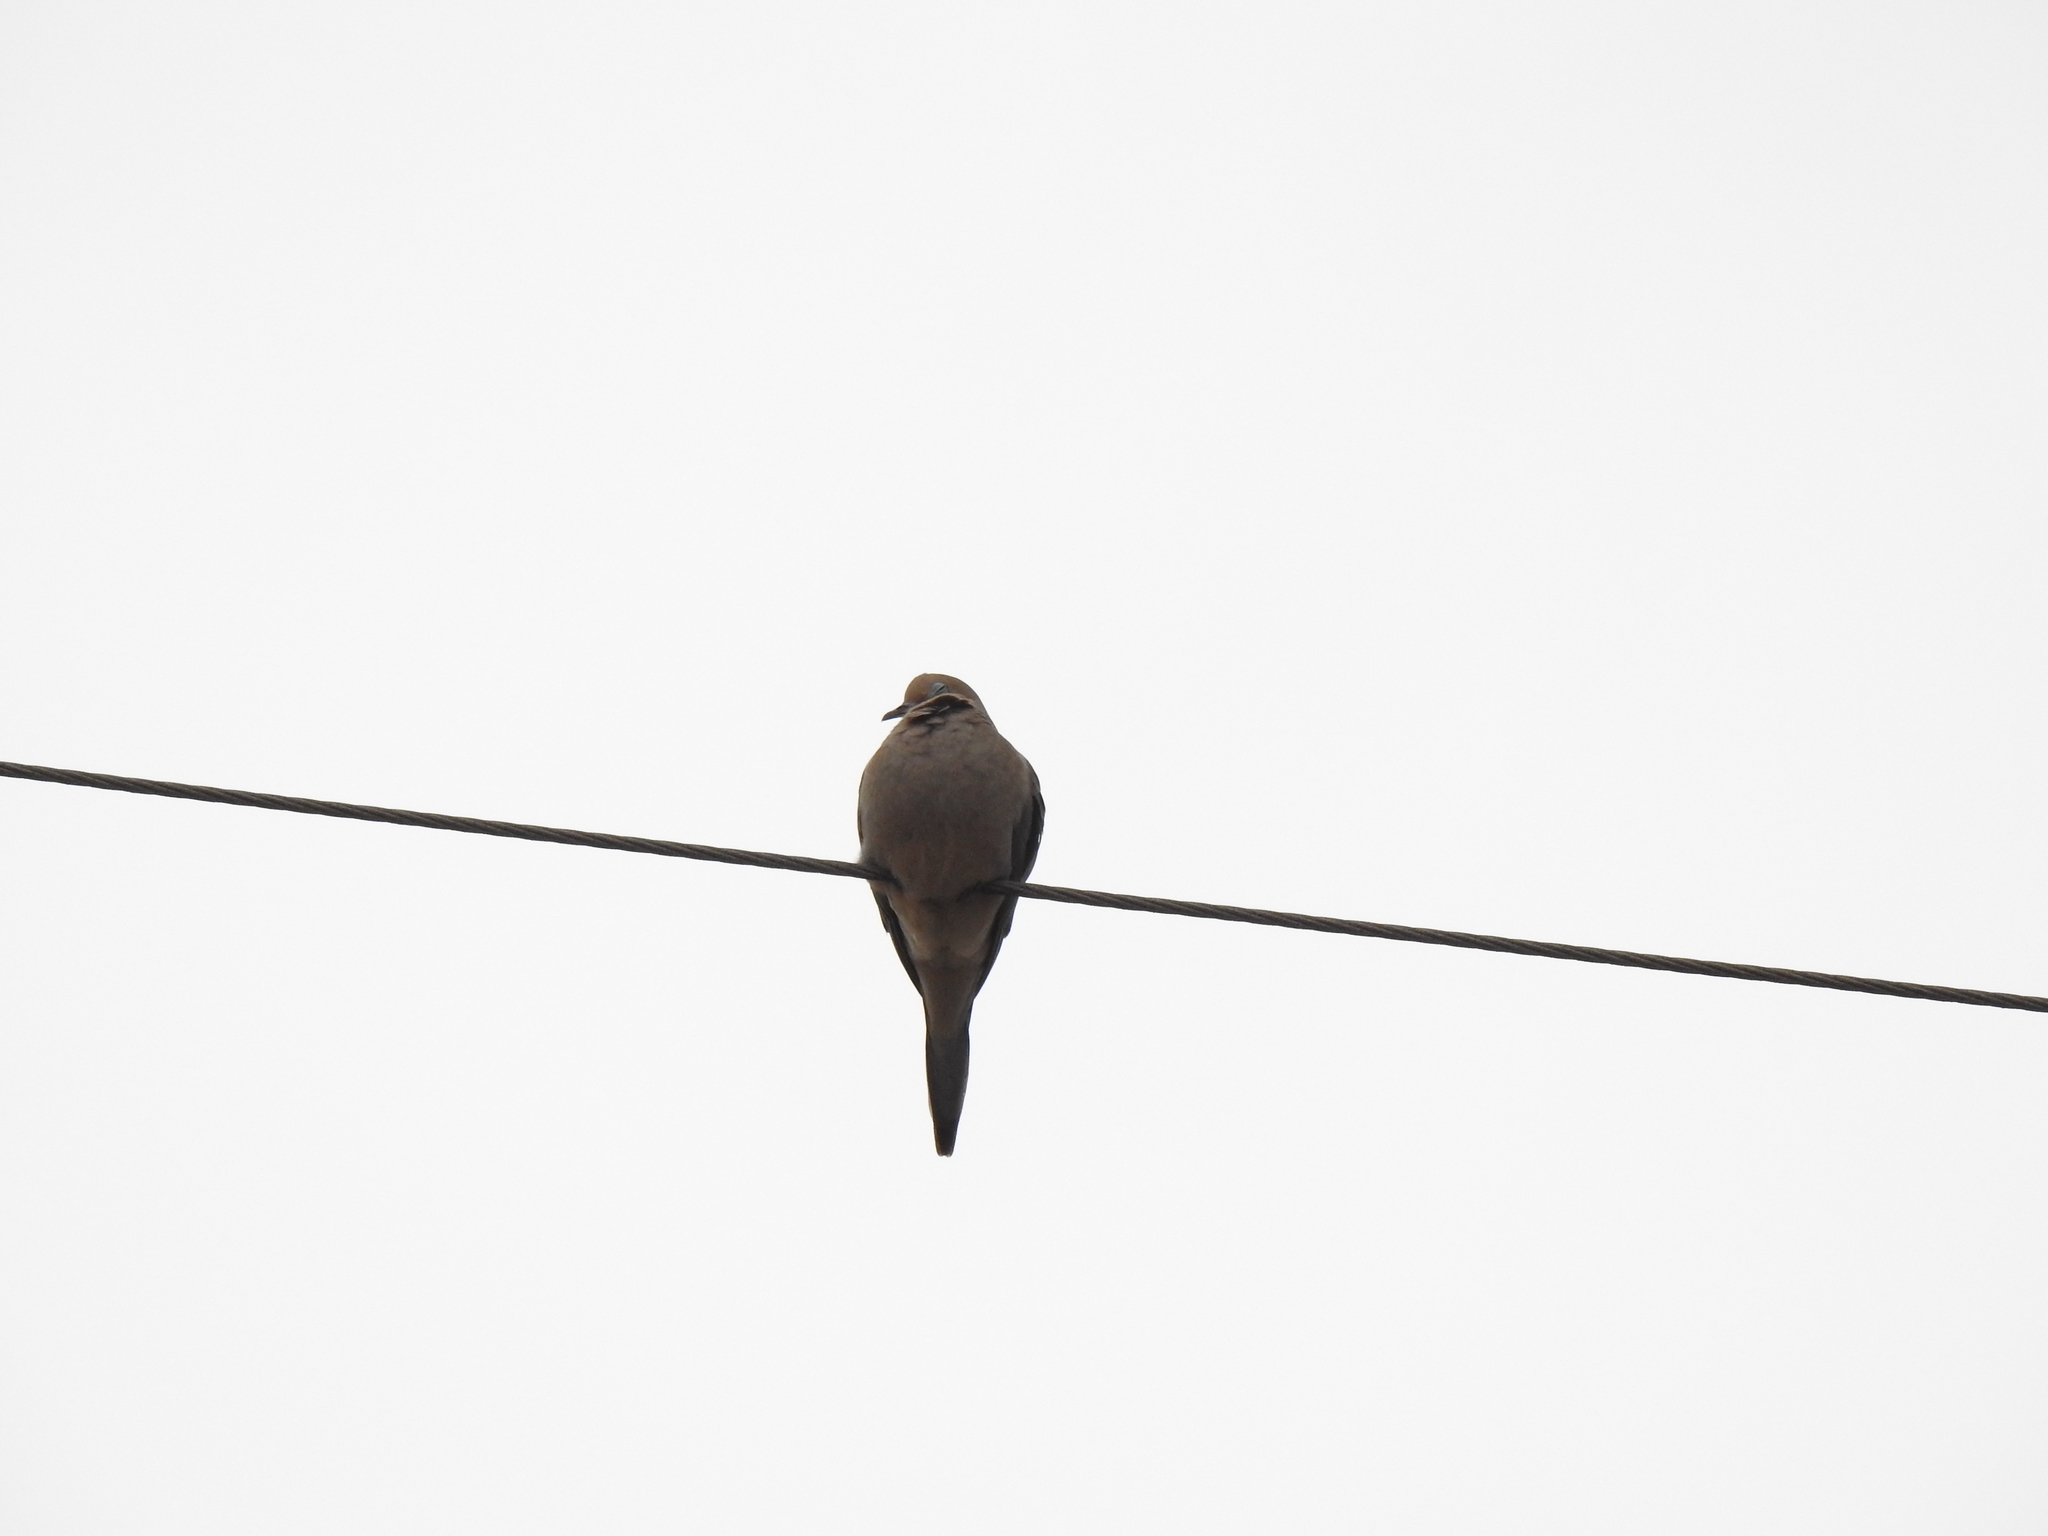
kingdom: Animalia
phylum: Chordata
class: Aves
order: Columbiformes
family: Columbidae
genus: Zenaida
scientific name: Zenaida macroura
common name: Mourning dove
